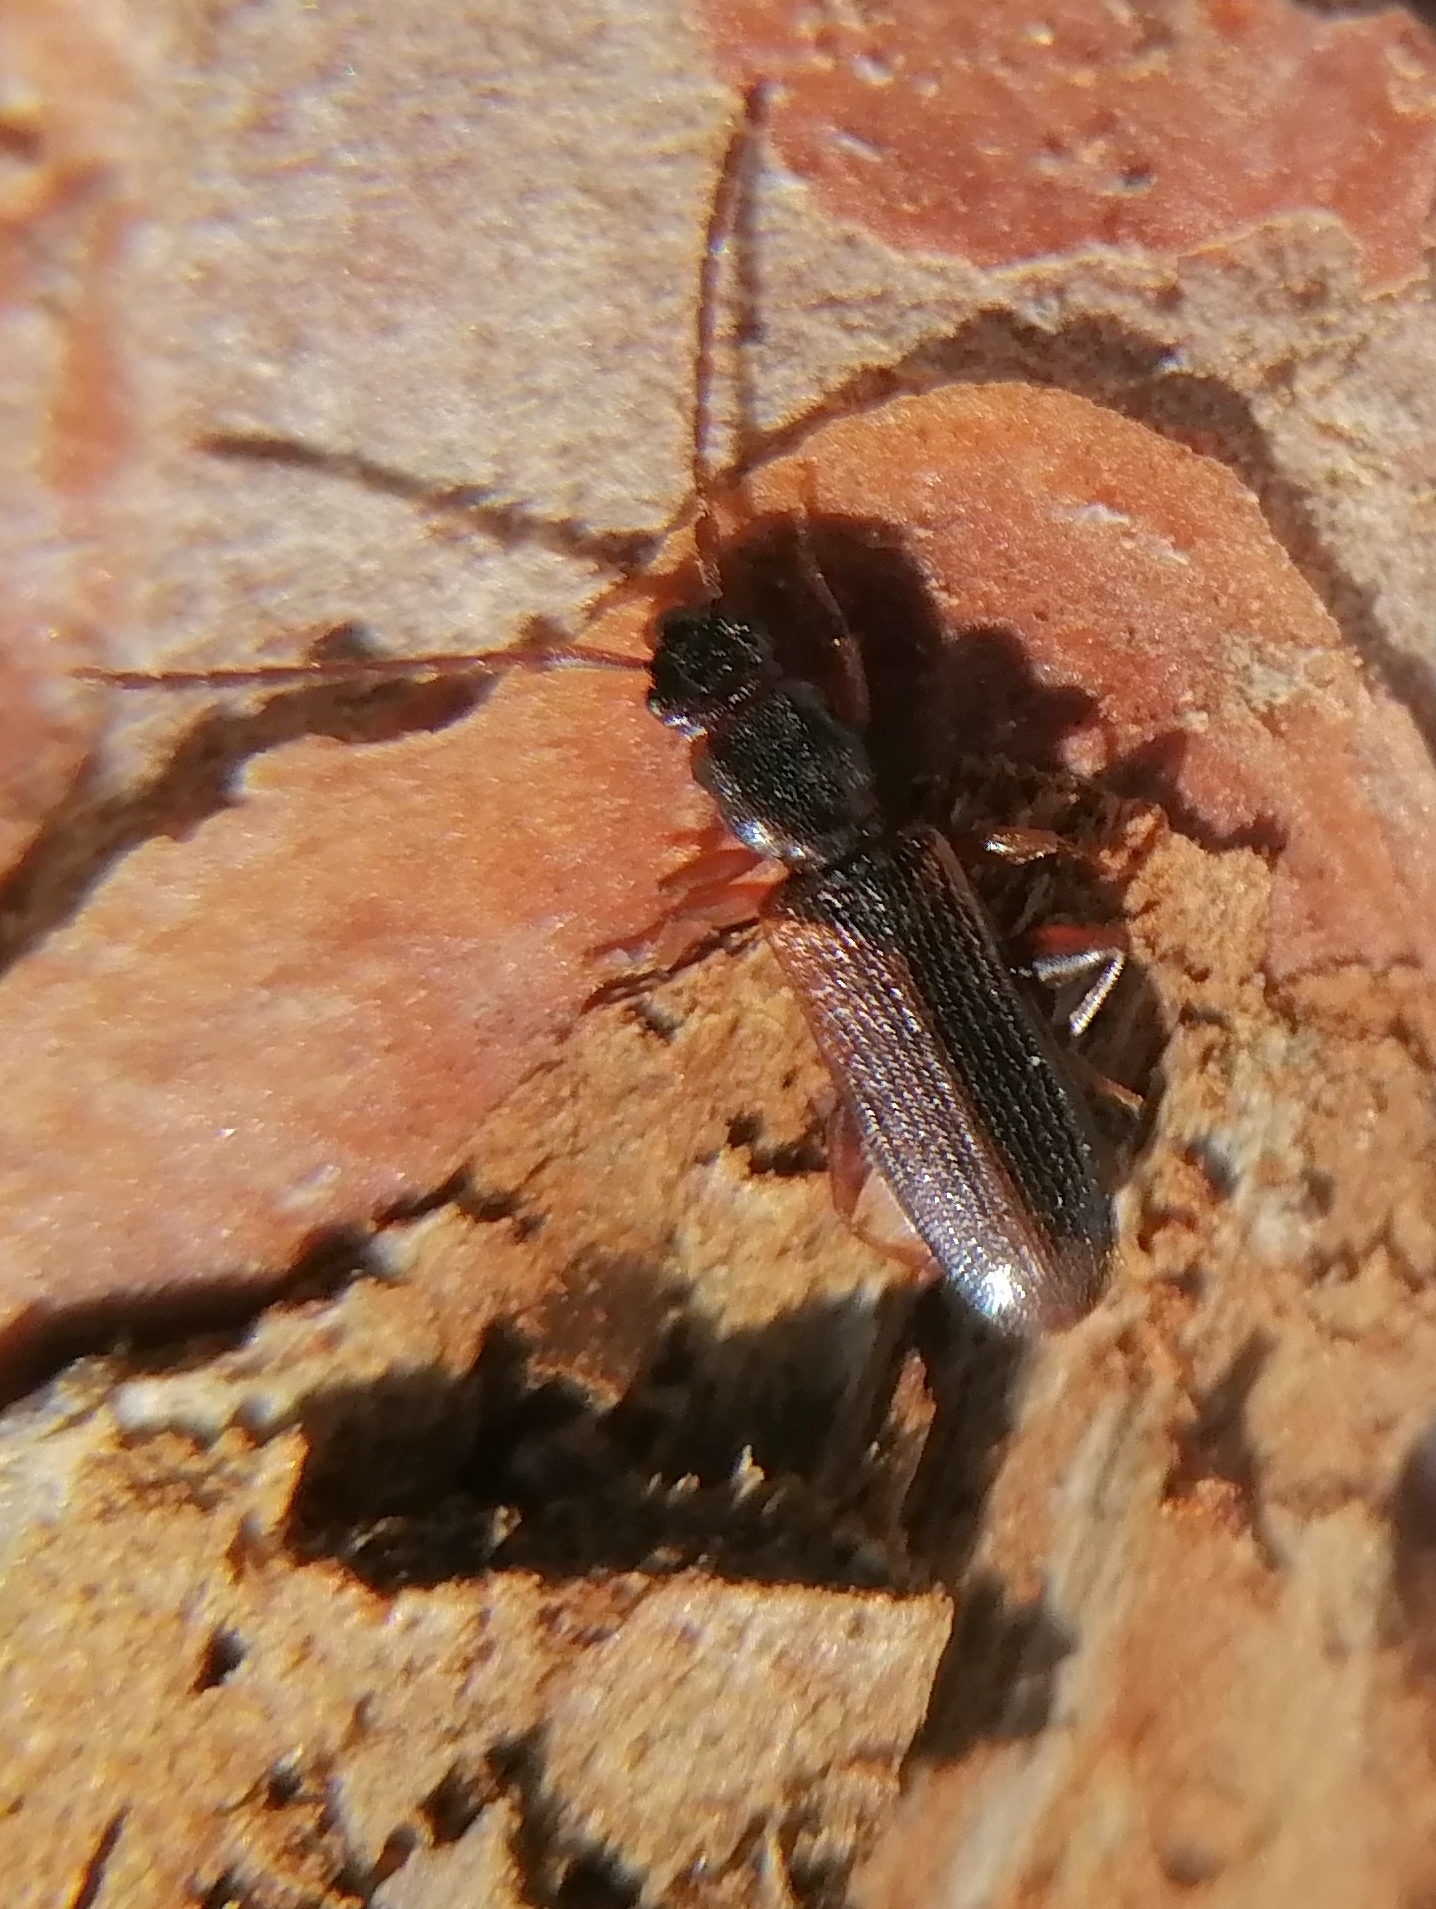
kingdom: Animalia
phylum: Arthropoda
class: Insecta
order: Coleoptera
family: Silvanidae
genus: Dendrophagus
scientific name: Dendrophagus crenatus
